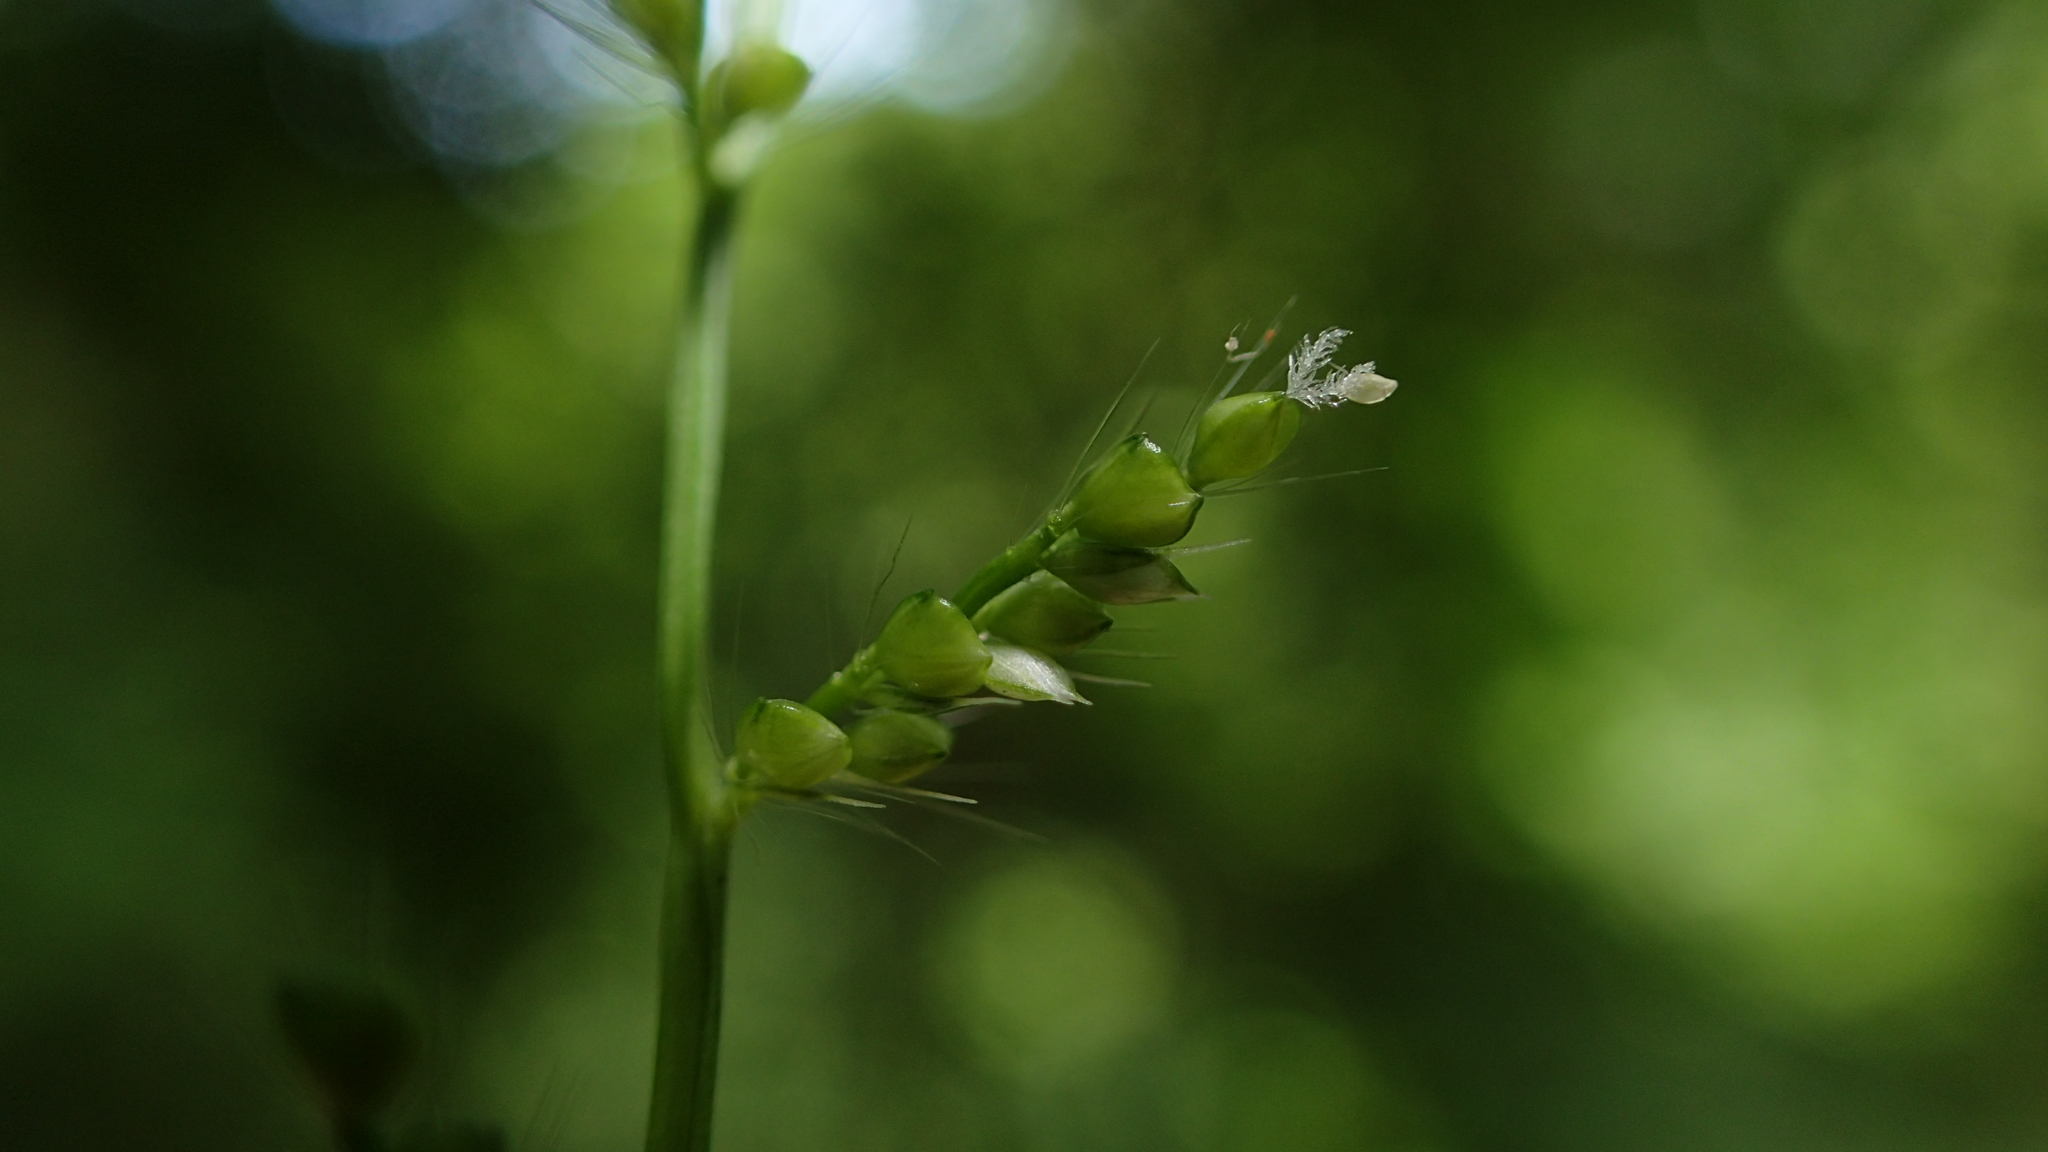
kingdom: Plantae
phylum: Tracheophyta
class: Liliopsida
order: Poales
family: Poaceae
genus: Cyphochlaena
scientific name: Cyphochlaena madagascariensis
